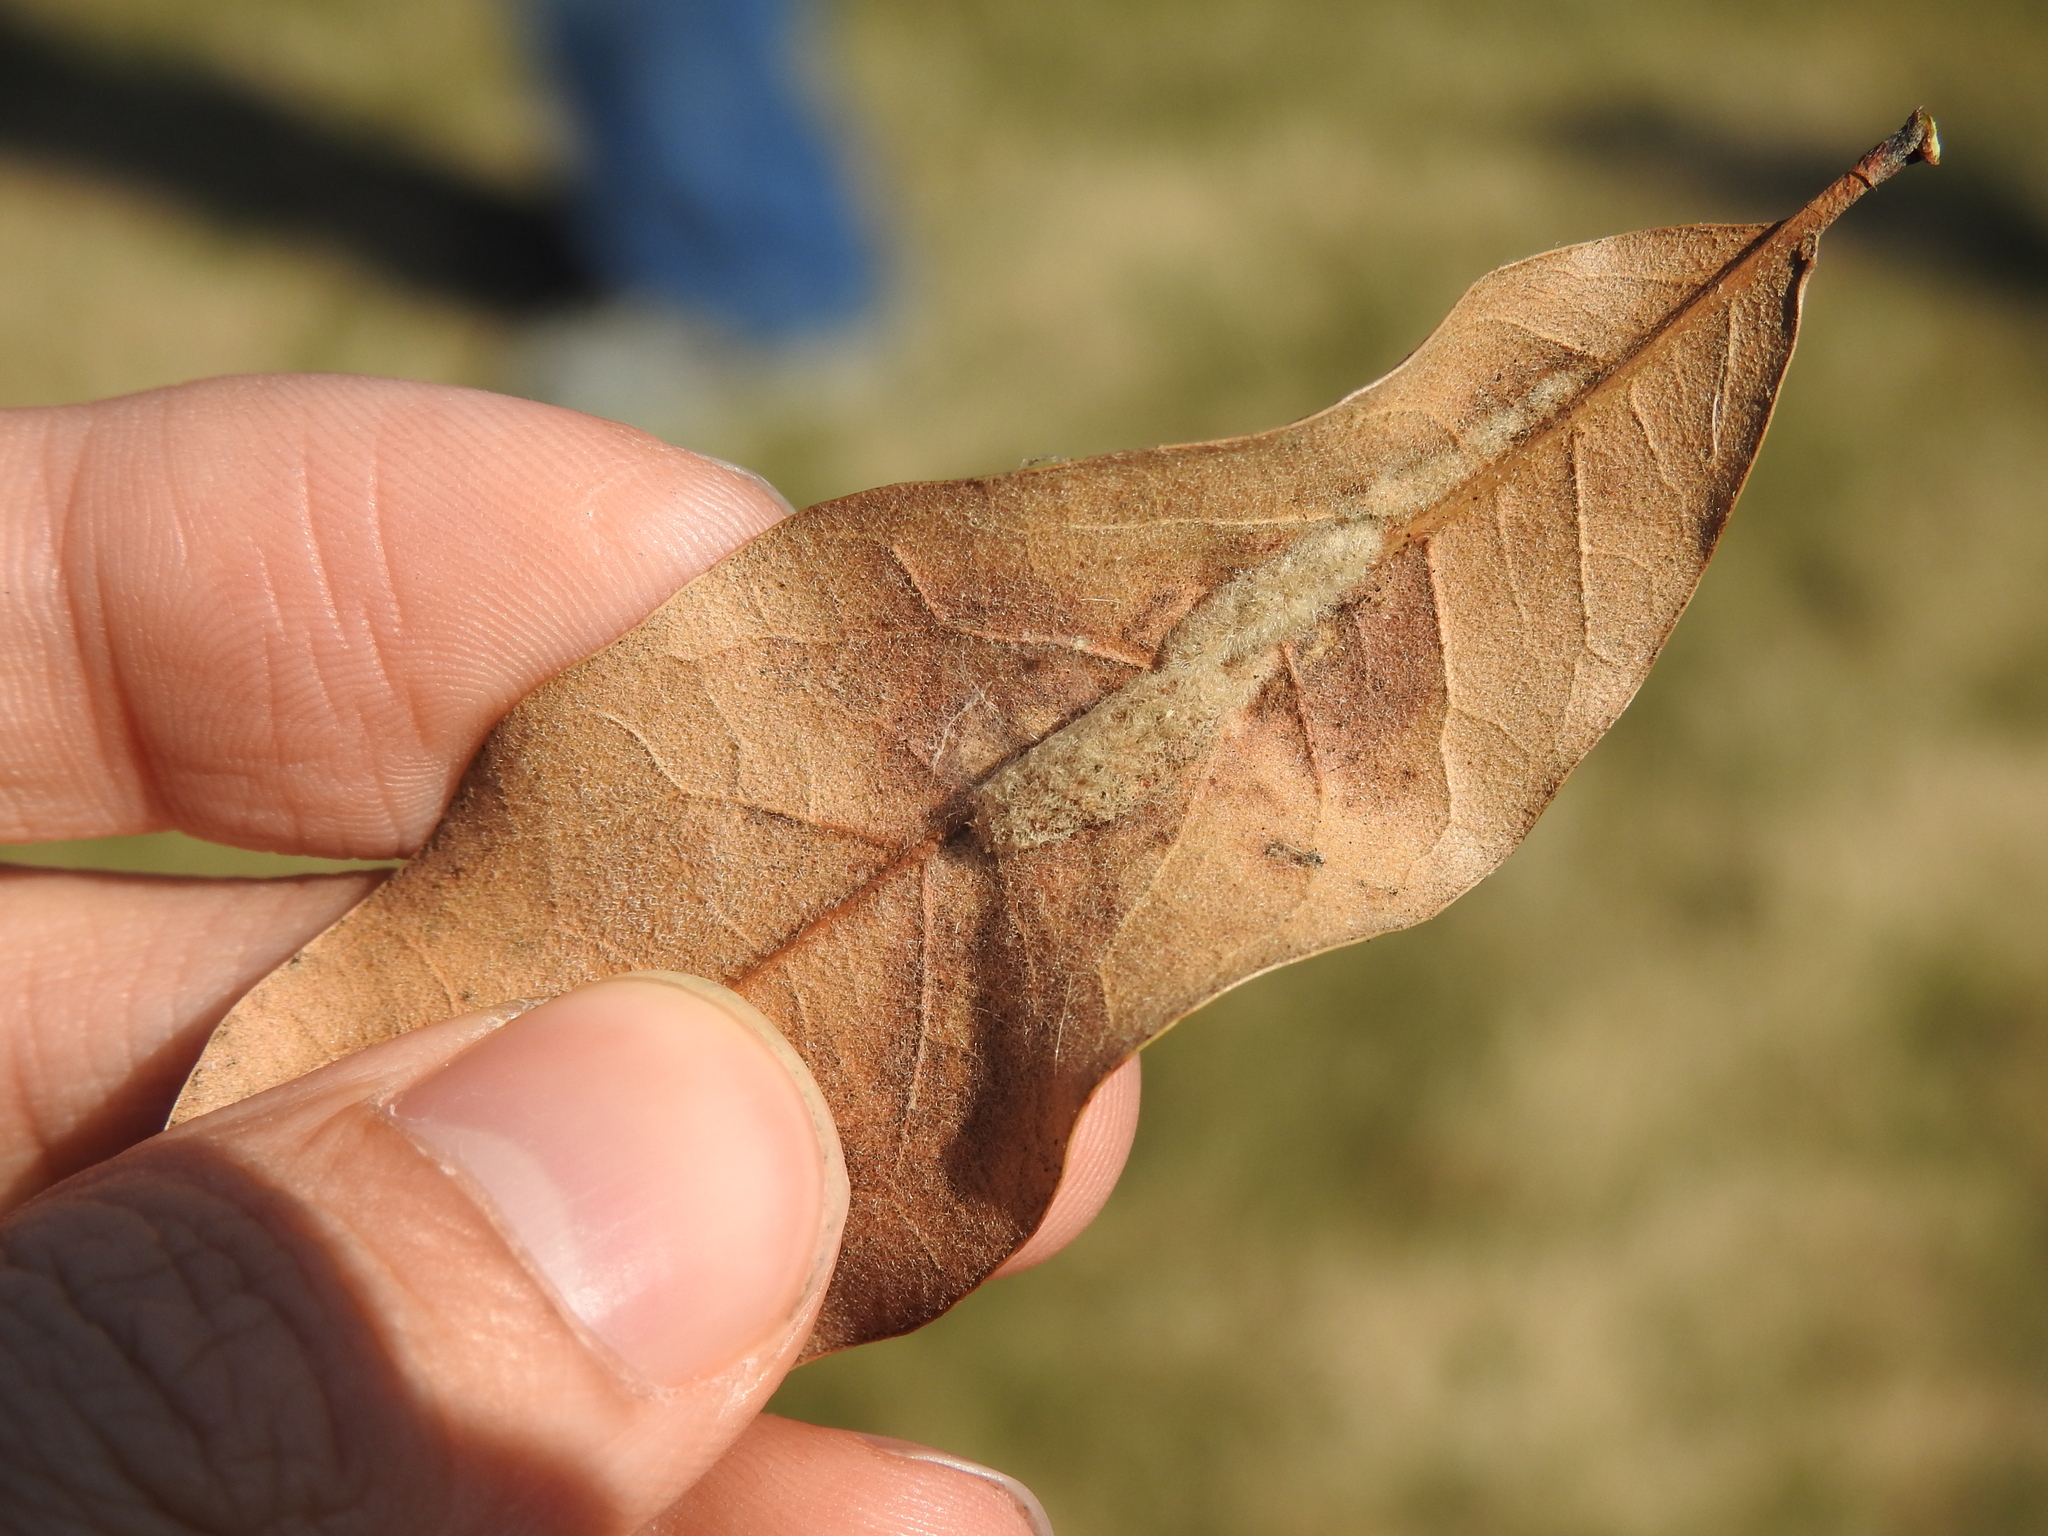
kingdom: Animalia
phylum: Arthropoda
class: Insecta
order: Diptera
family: Cecidomyiidae
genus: Macrodiplosis
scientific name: Macrodiplosis niveipila
